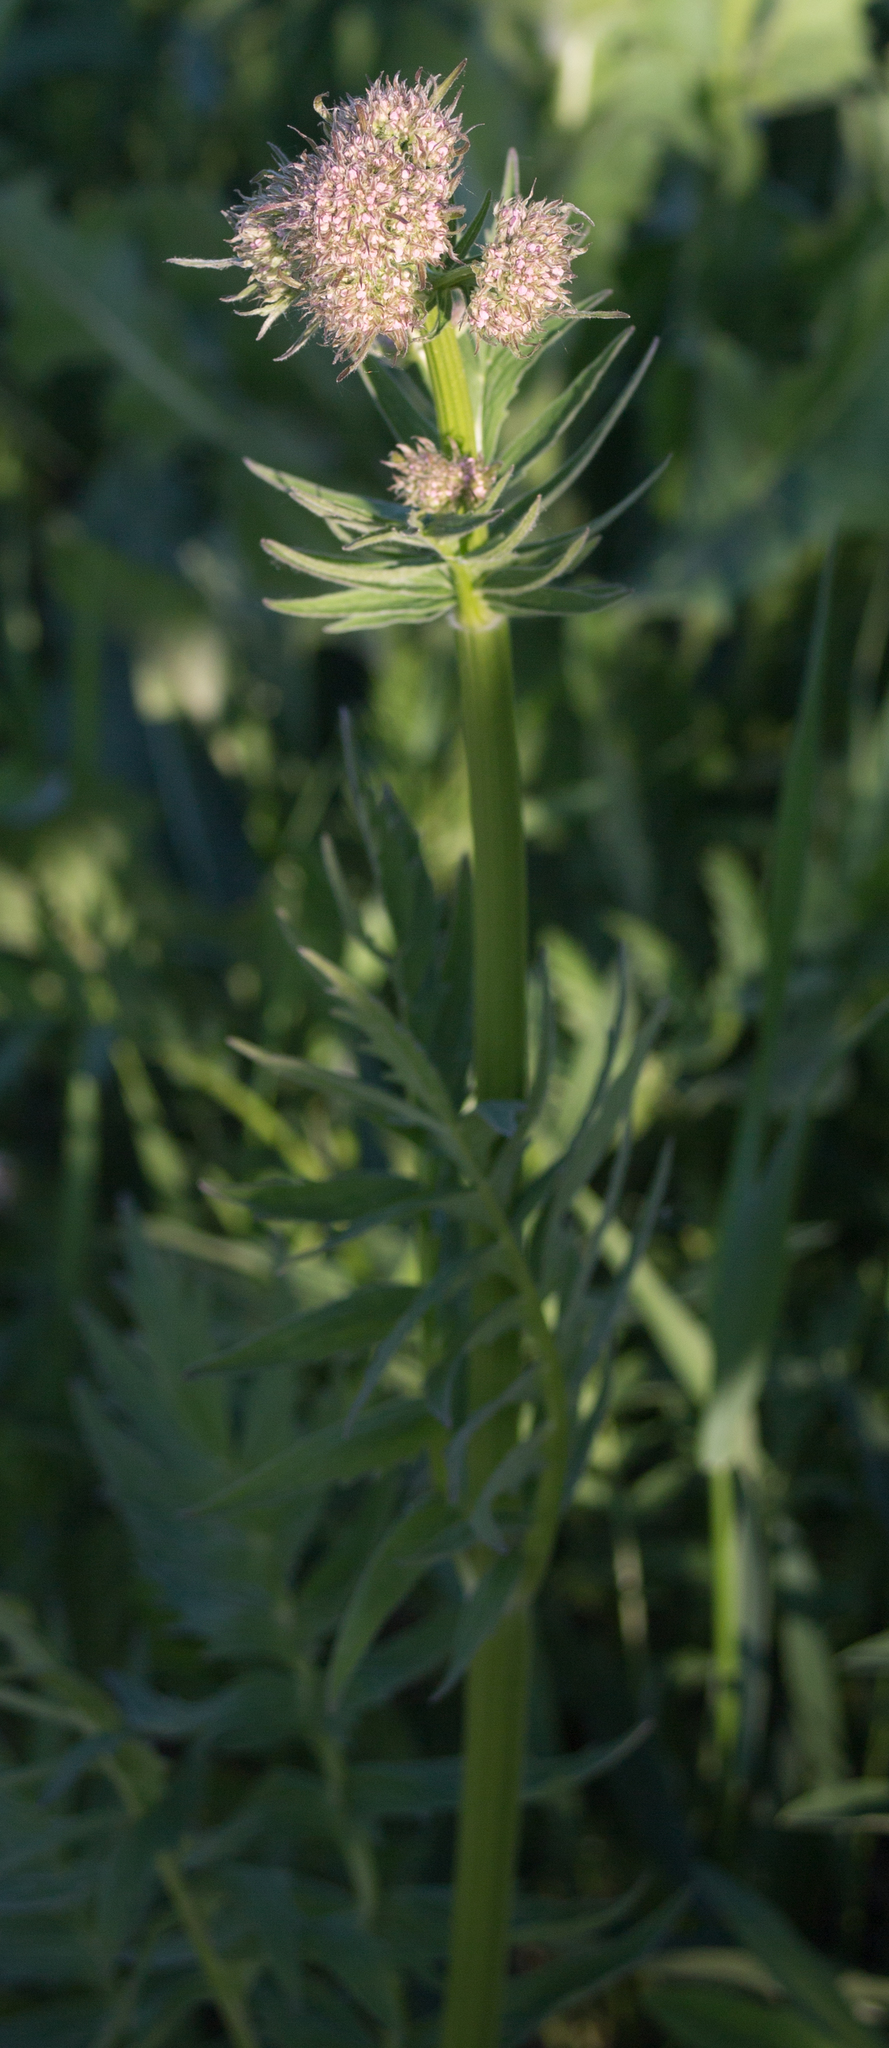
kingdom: Plantae
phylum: Tracheophyta
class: Magnoliopsida
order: Dipsacales
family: Caprifoliaceae
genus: Valeriana
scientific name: Valeriana officinalis
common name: Common valerian
